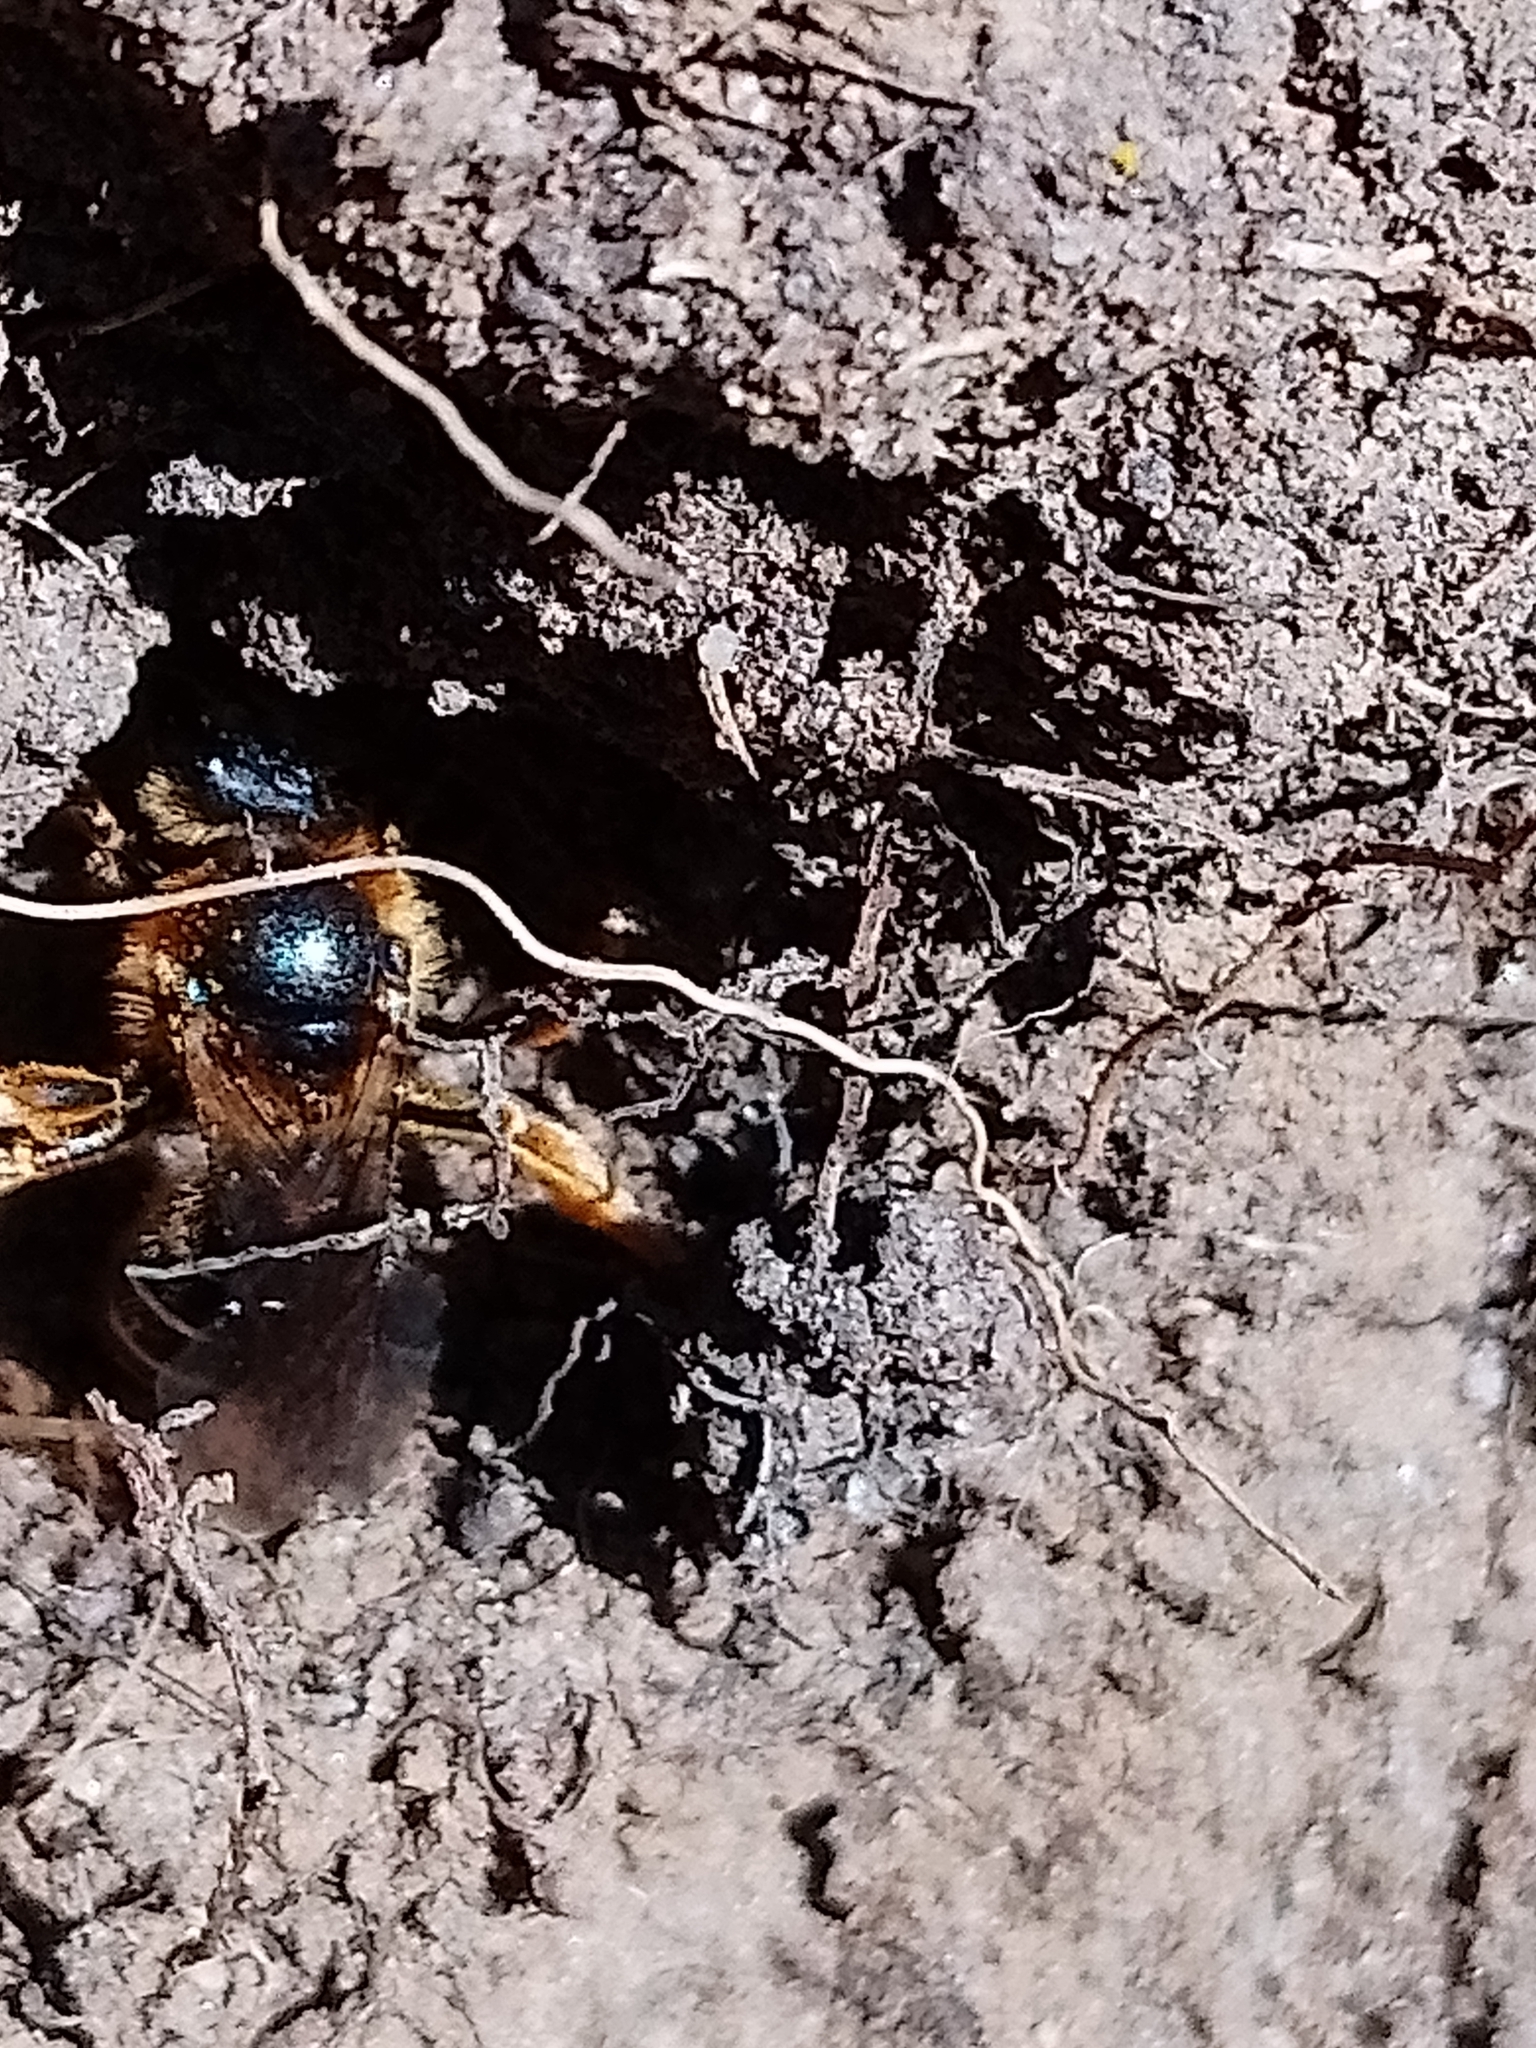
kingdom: Animalia
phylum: Arthropoda
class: Insecta
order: Hymenoptera
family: Halictidae
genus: Halictus
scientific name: Halictus rubicundus
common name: Orange-legged furrow bee
